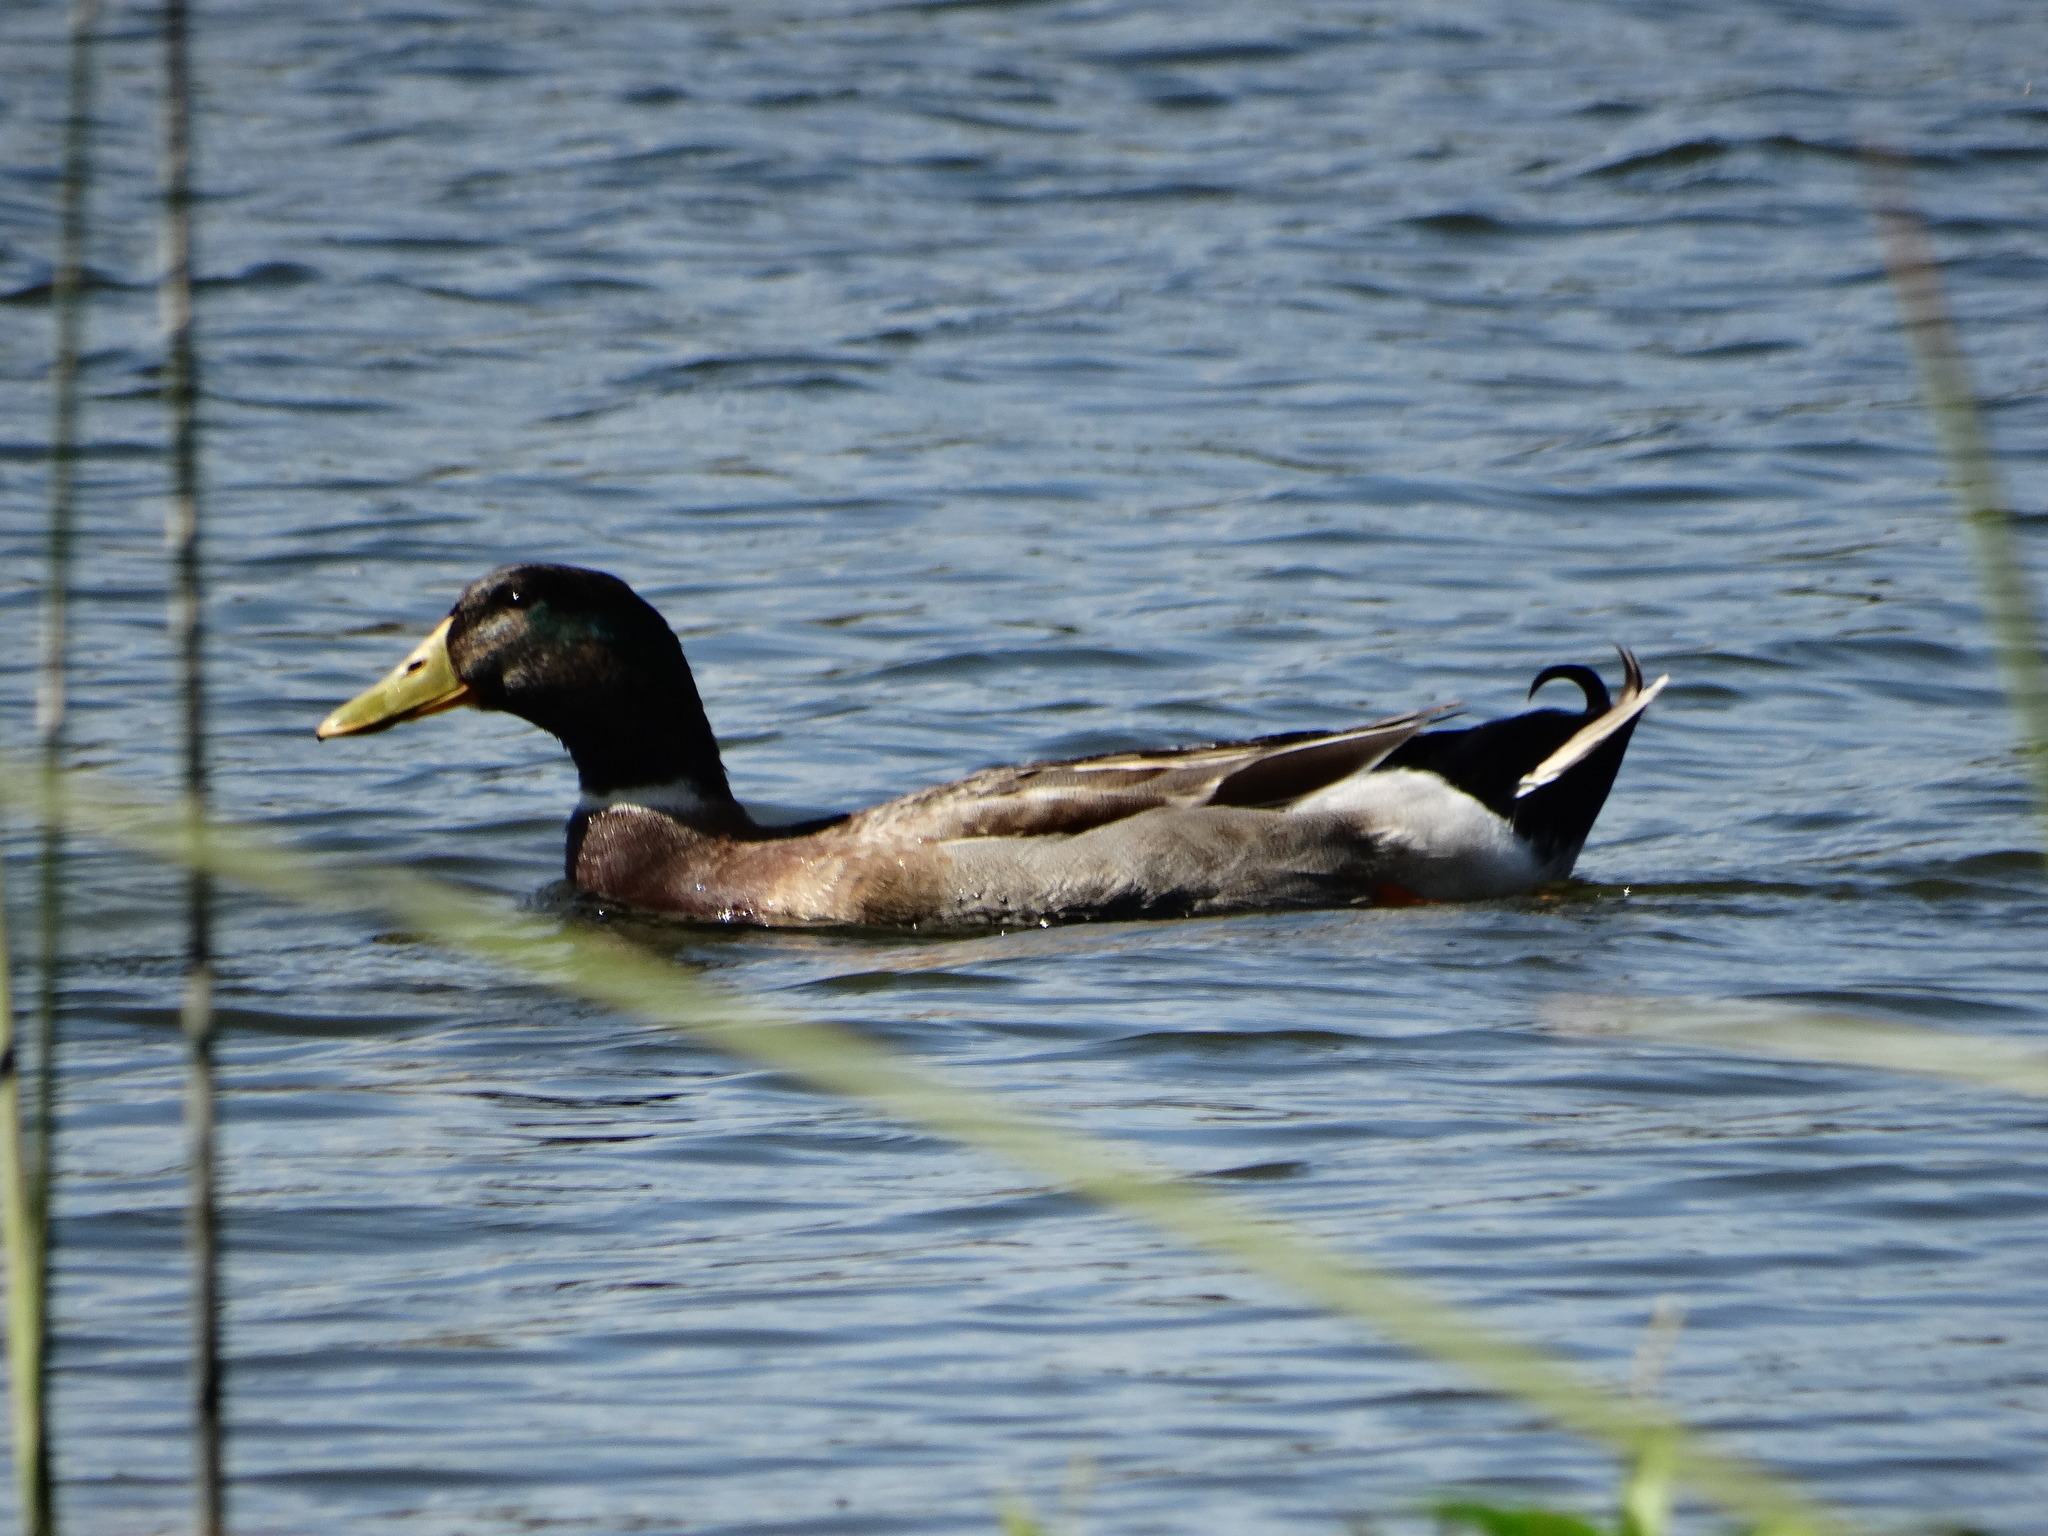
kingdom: Animalia
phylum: Chordata
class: Aves
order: Anseriformes
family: Anatidae
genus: Anas
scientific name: Anas platyrhynchos
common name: Mallard
